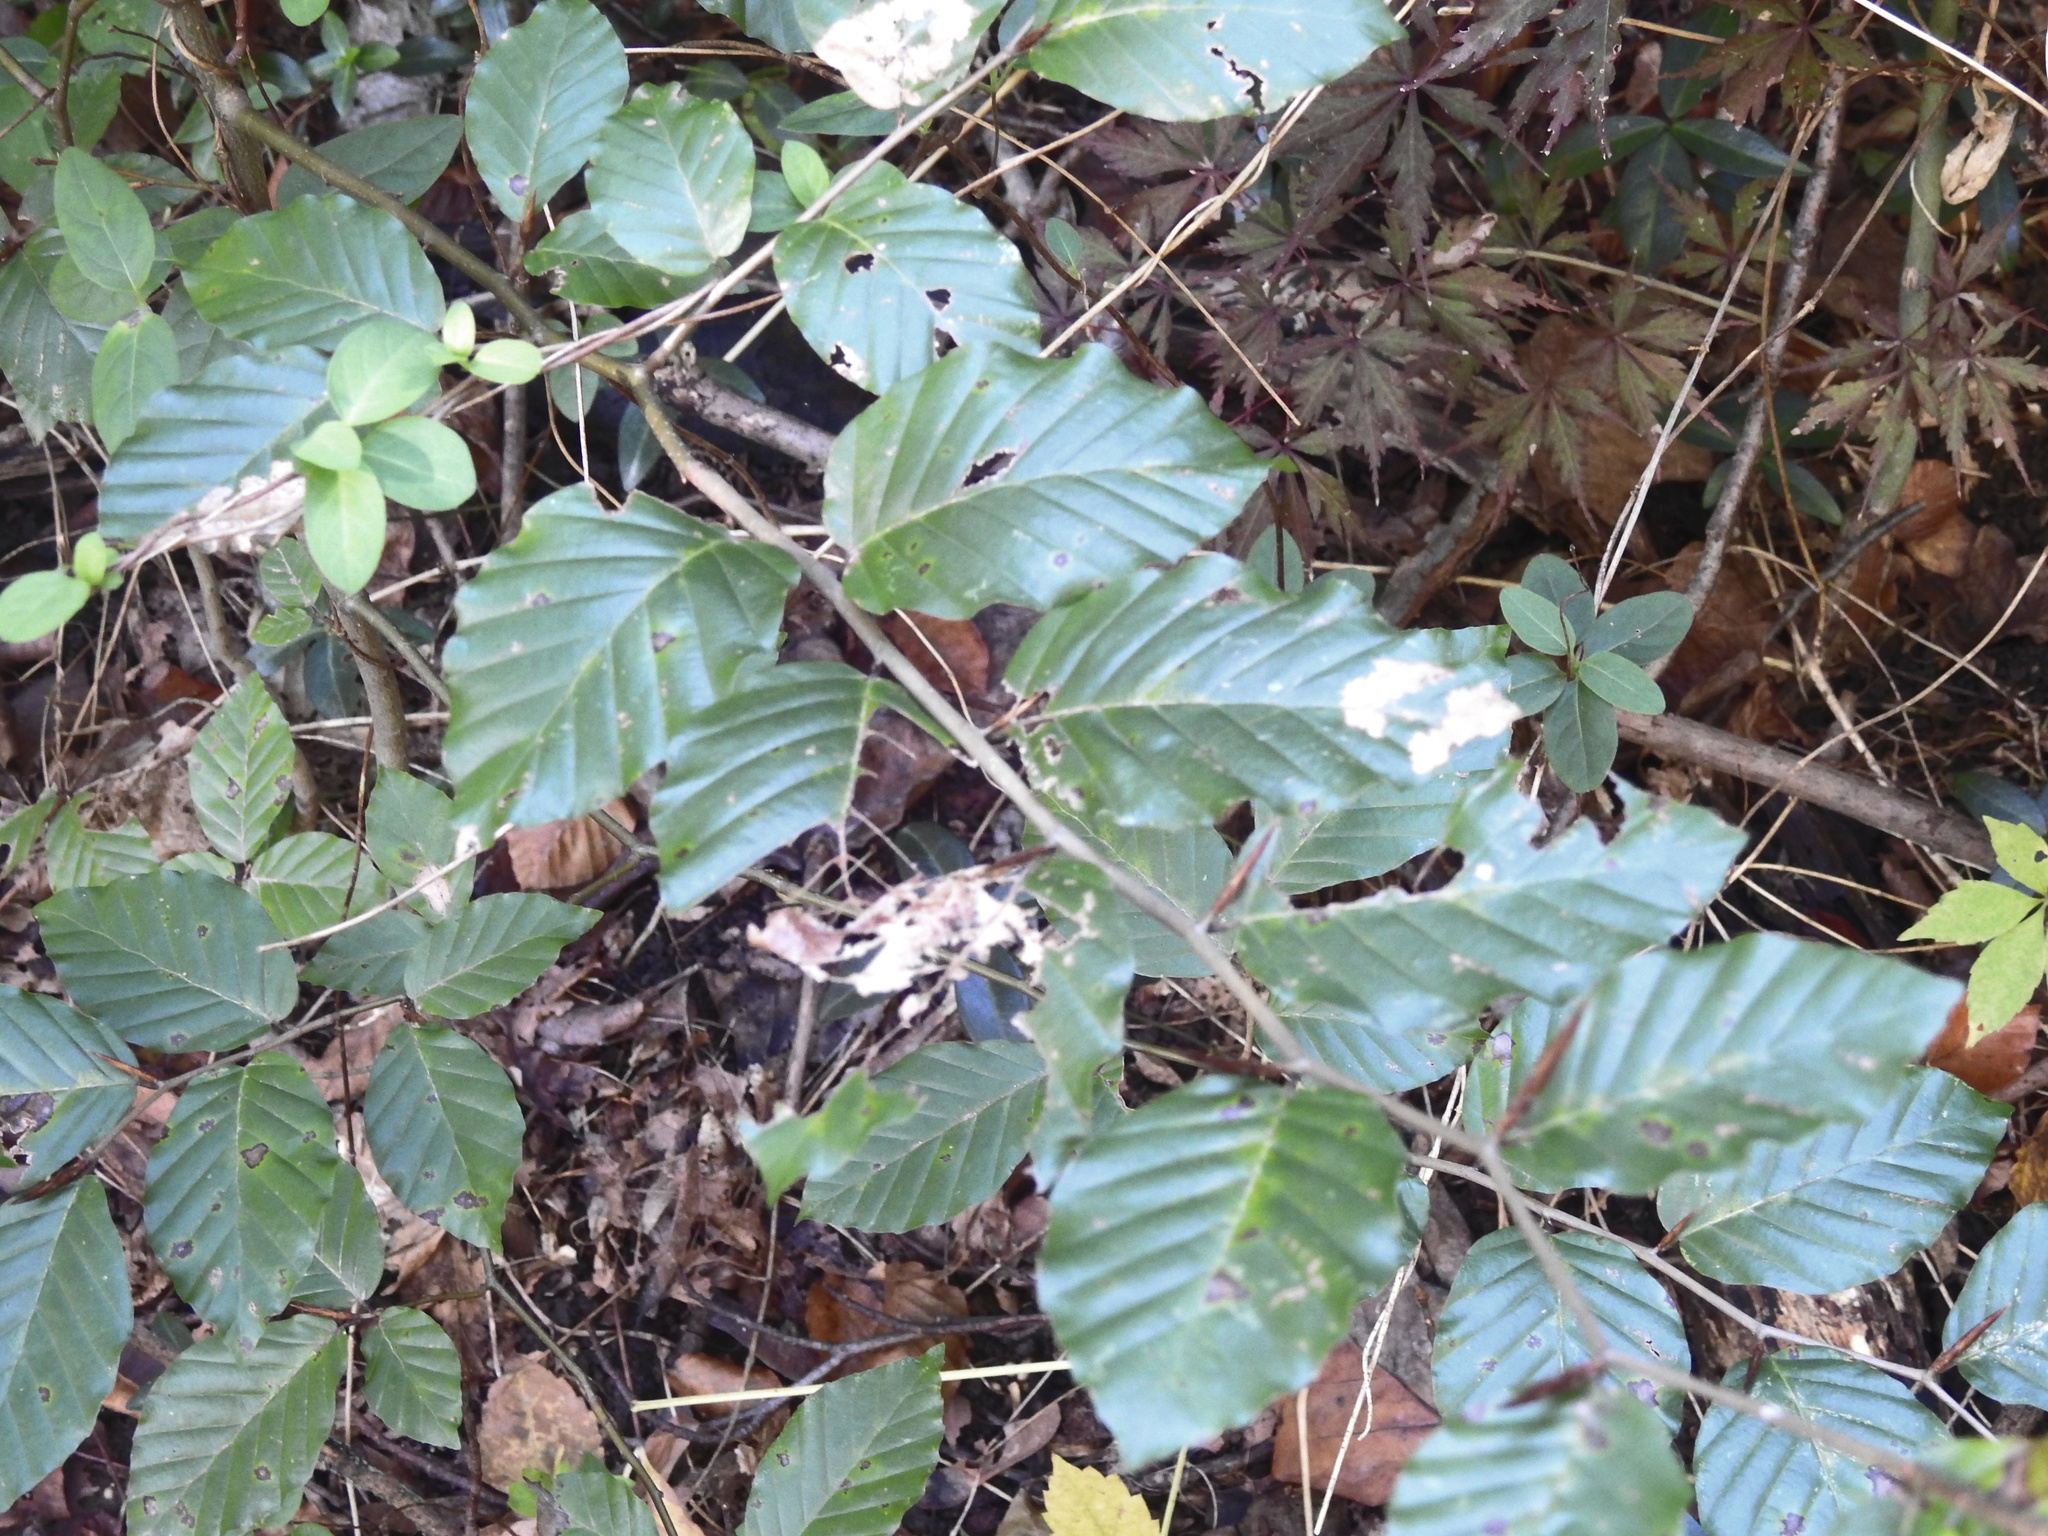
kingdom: Plantae
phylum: Tracheophyta
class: Magnoliopsida
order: Fagales
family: Fagaceae
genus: Fagus
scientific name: Fagus sylvatica
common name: Beech
